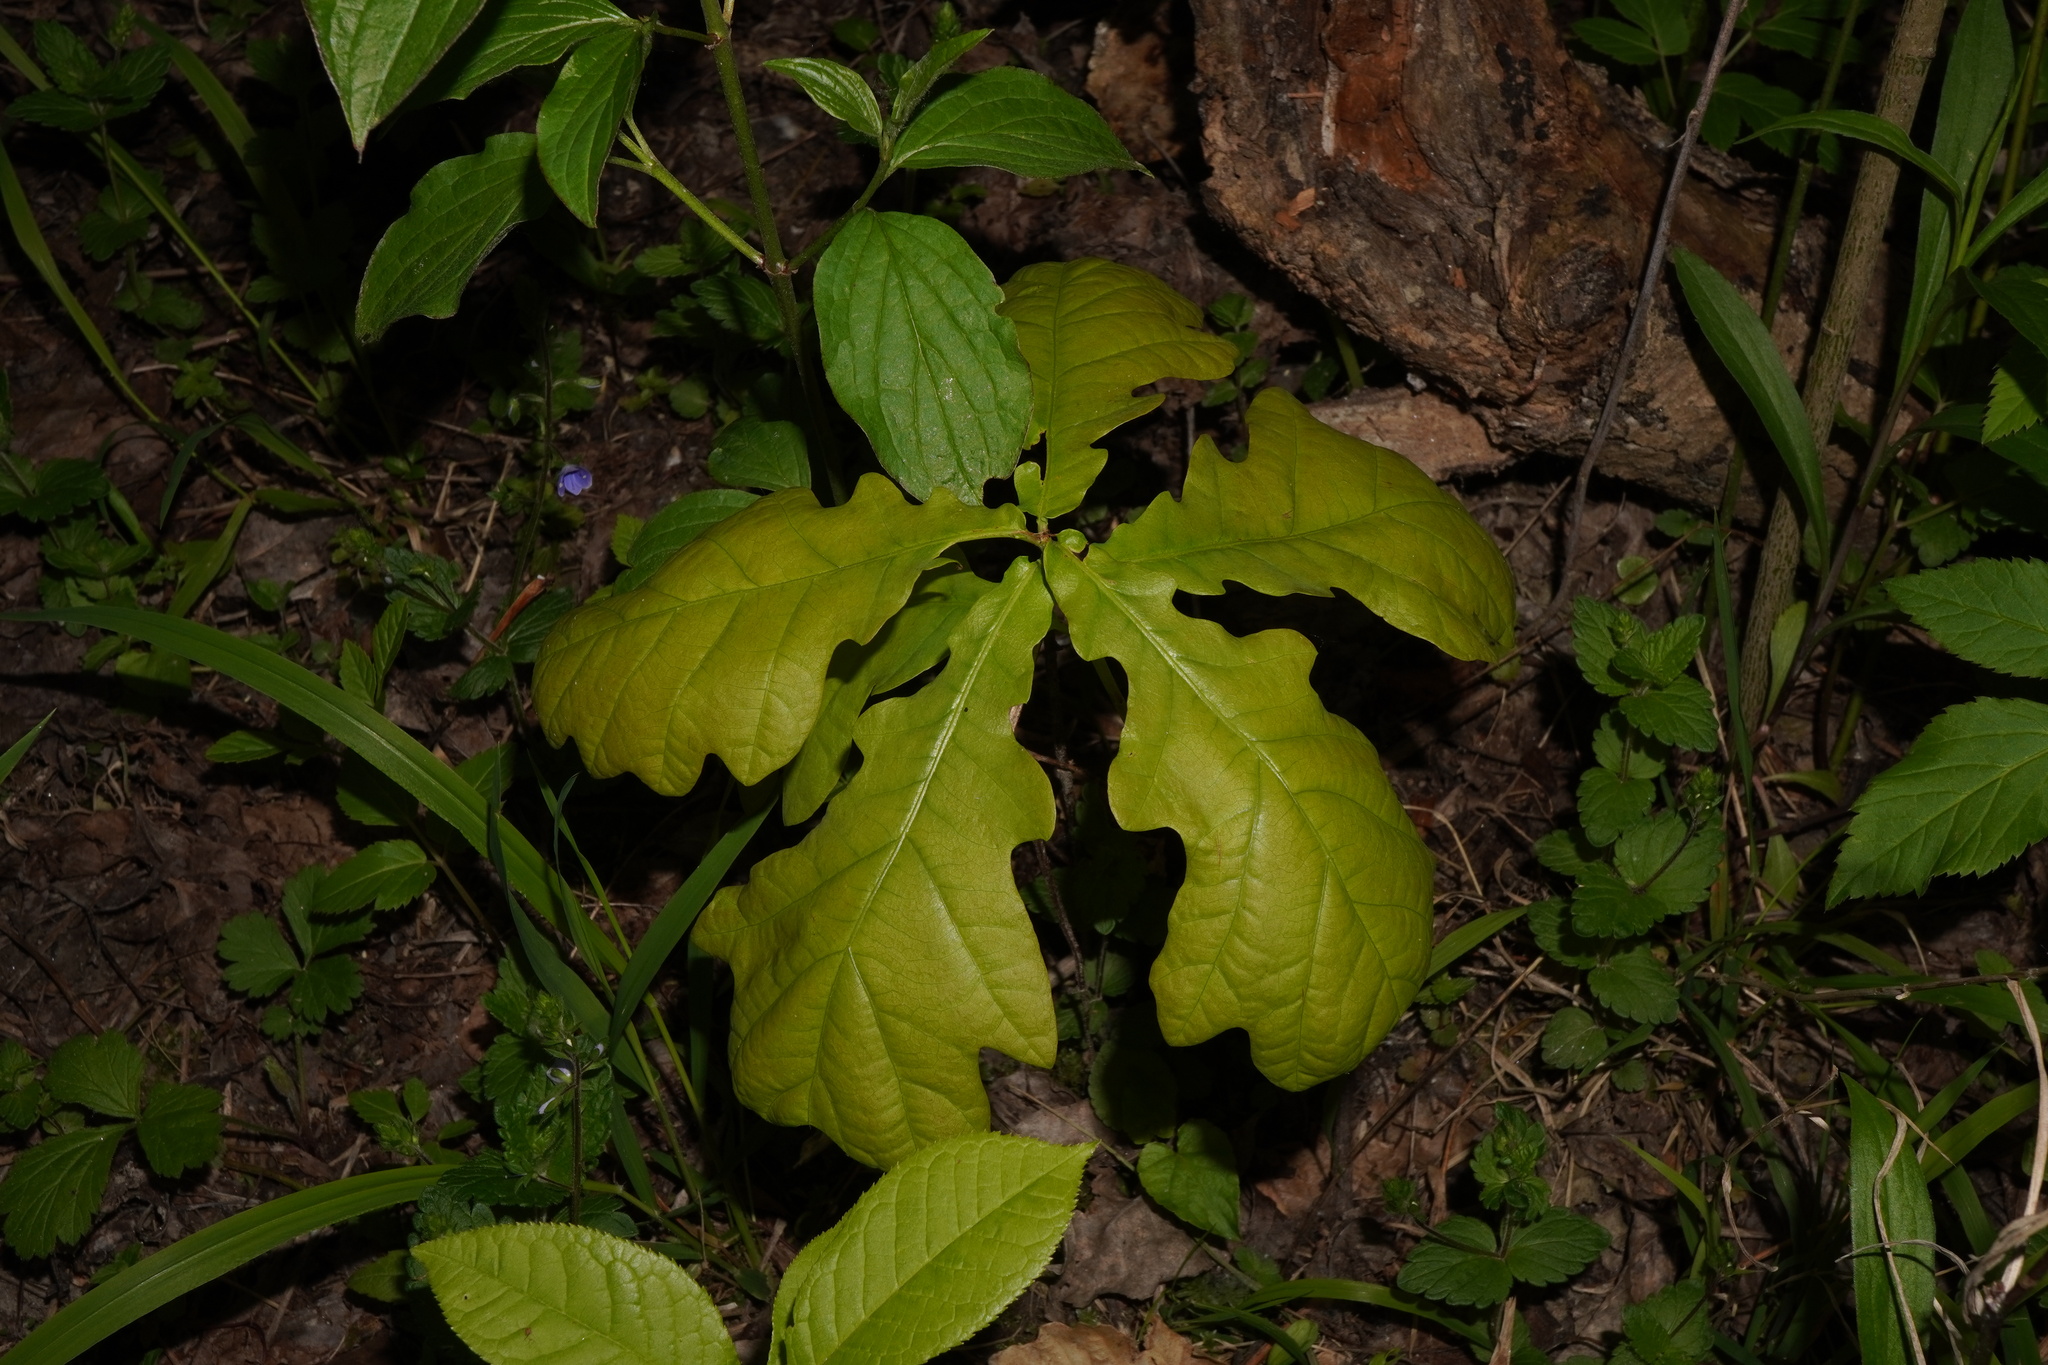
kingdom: Plantae
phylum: Tracheophyta
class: Magnoliopsida
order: Fagales
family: Fagaceae
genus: Quercus
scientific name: Quercus robur
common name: Pedunculate oak
